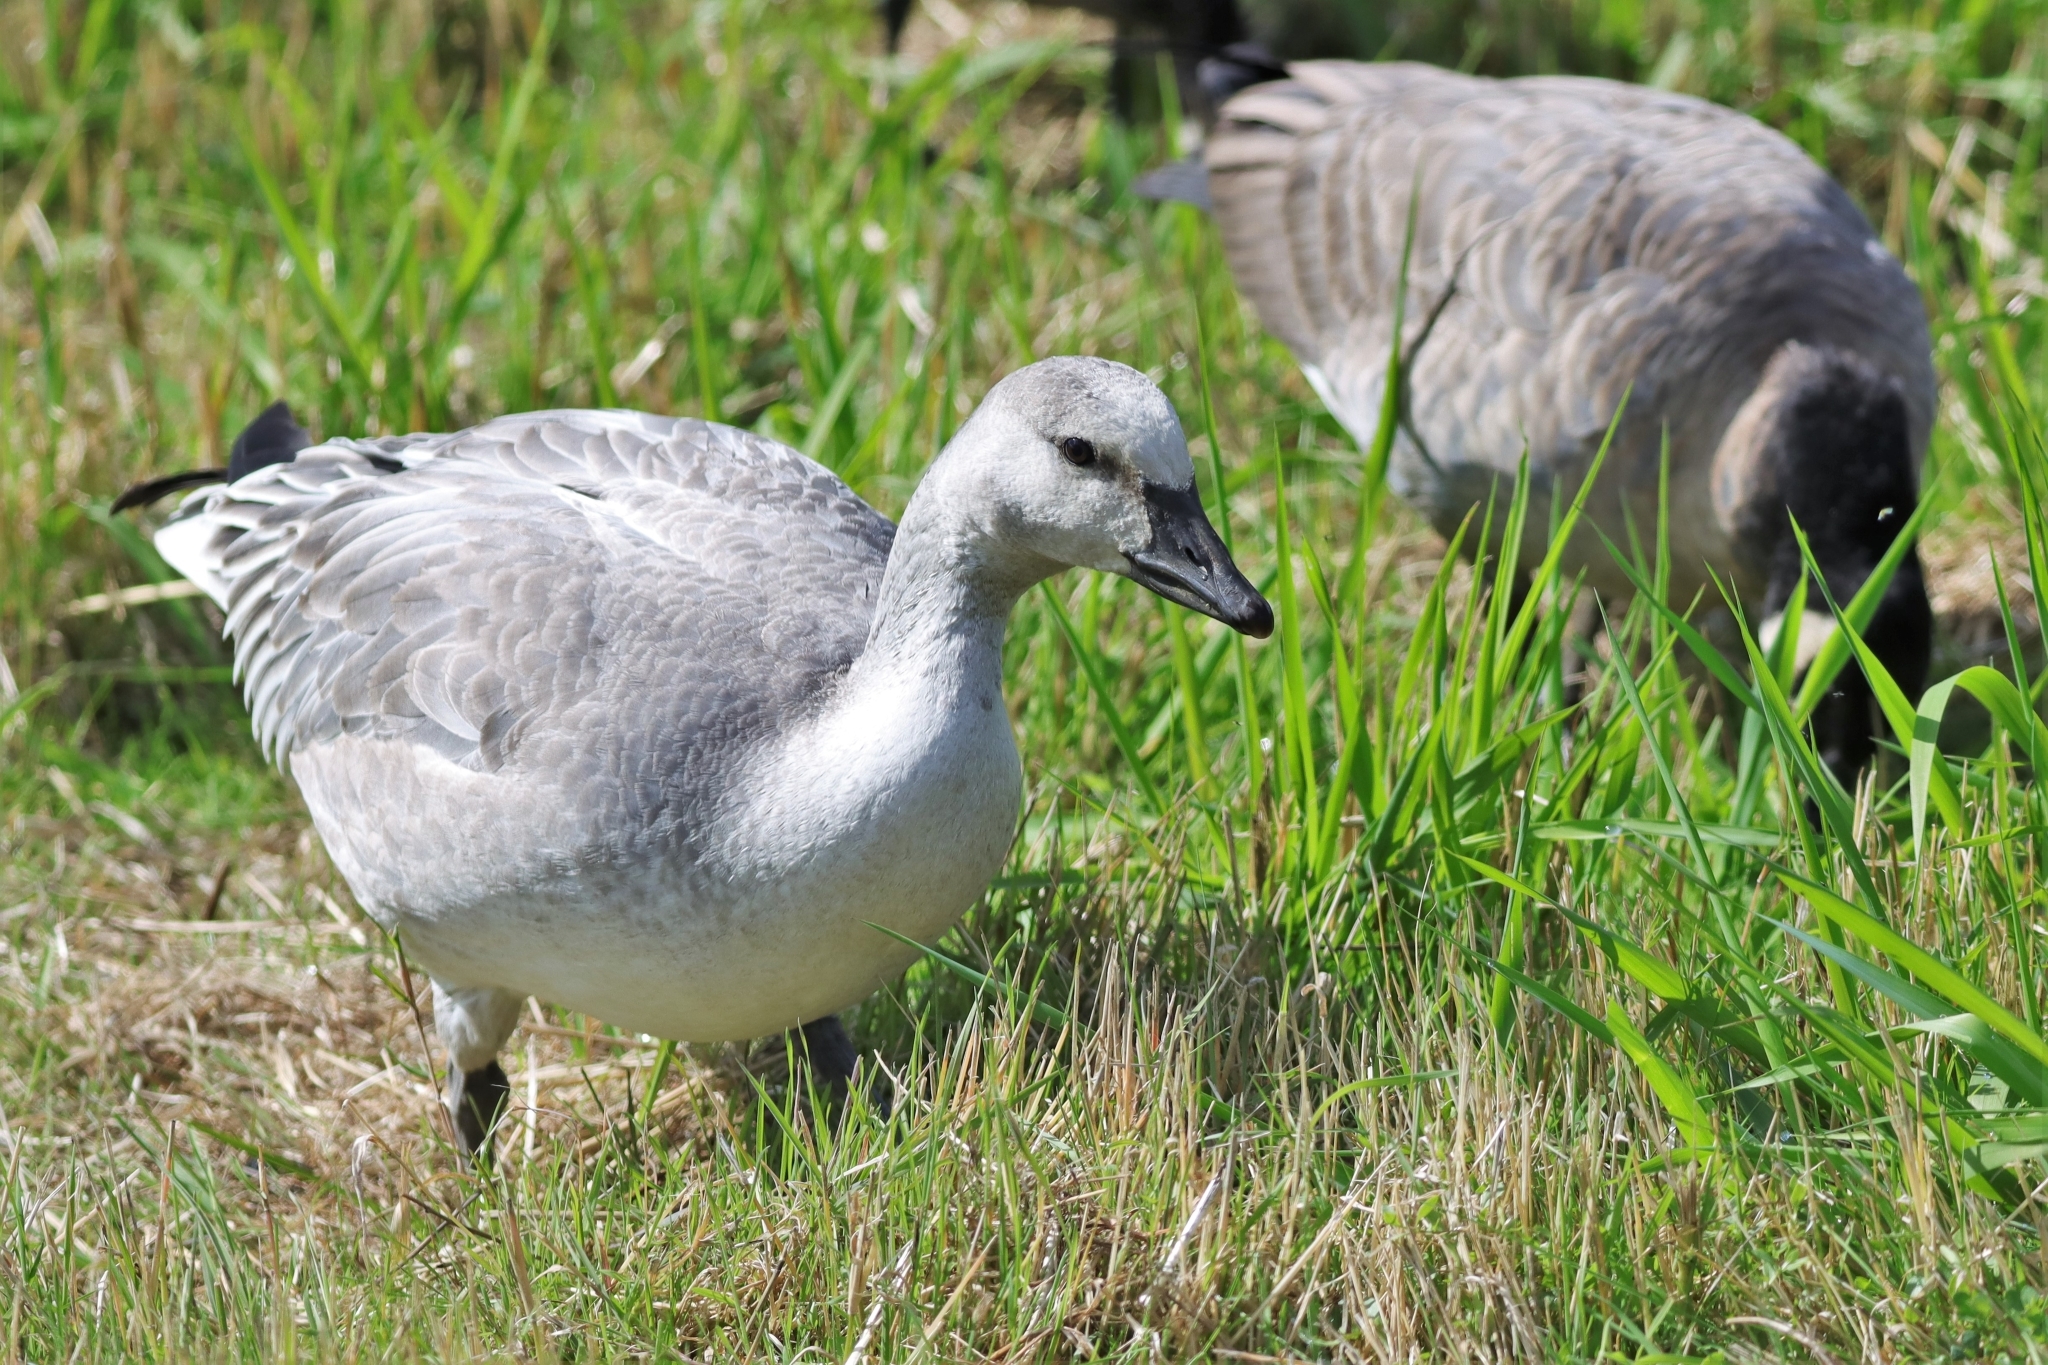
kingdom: Animalia
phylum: Chordata
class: Aves
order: Anseriformes
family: Anatidae
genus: Anser
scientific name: Anser caerulescens
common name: Snow goose
